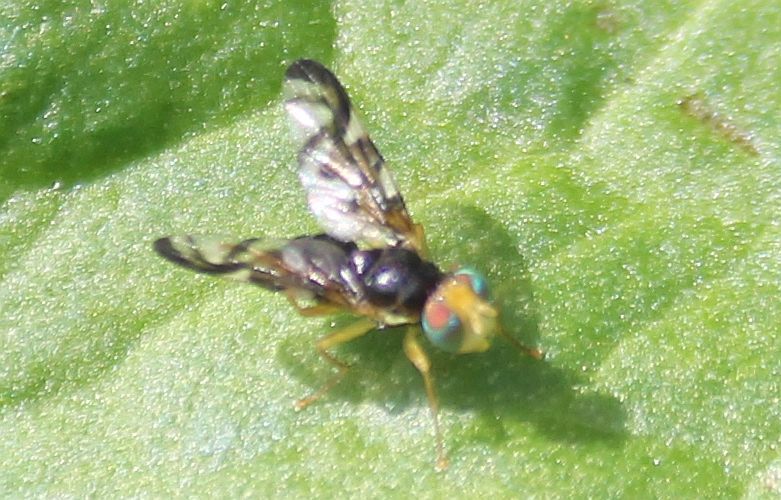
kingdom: Animalia
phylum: Arthropoda
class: Insecta
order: Diptera
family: Tephritidae
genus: Euleia
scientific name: Euleia heraclei
